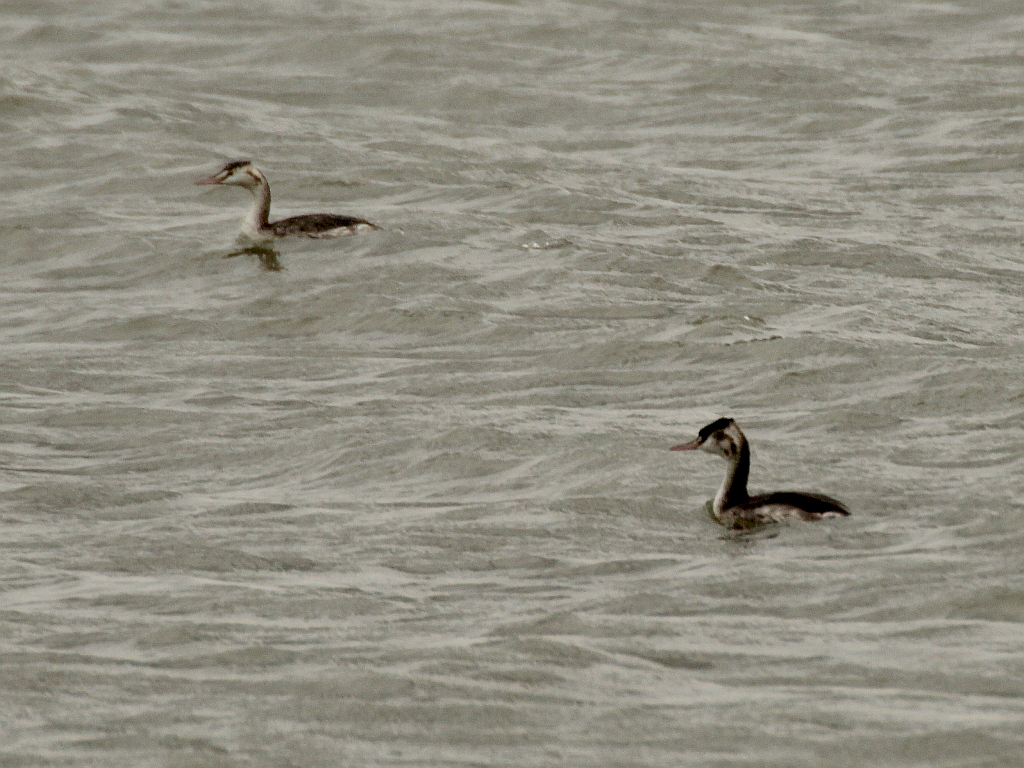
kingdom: Animalia
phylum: Chordata
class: Aves
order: Podicipediformes
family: Podicipedidae
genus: Podiceps
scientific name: Podiceps cristatus
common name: Great crested grebe
